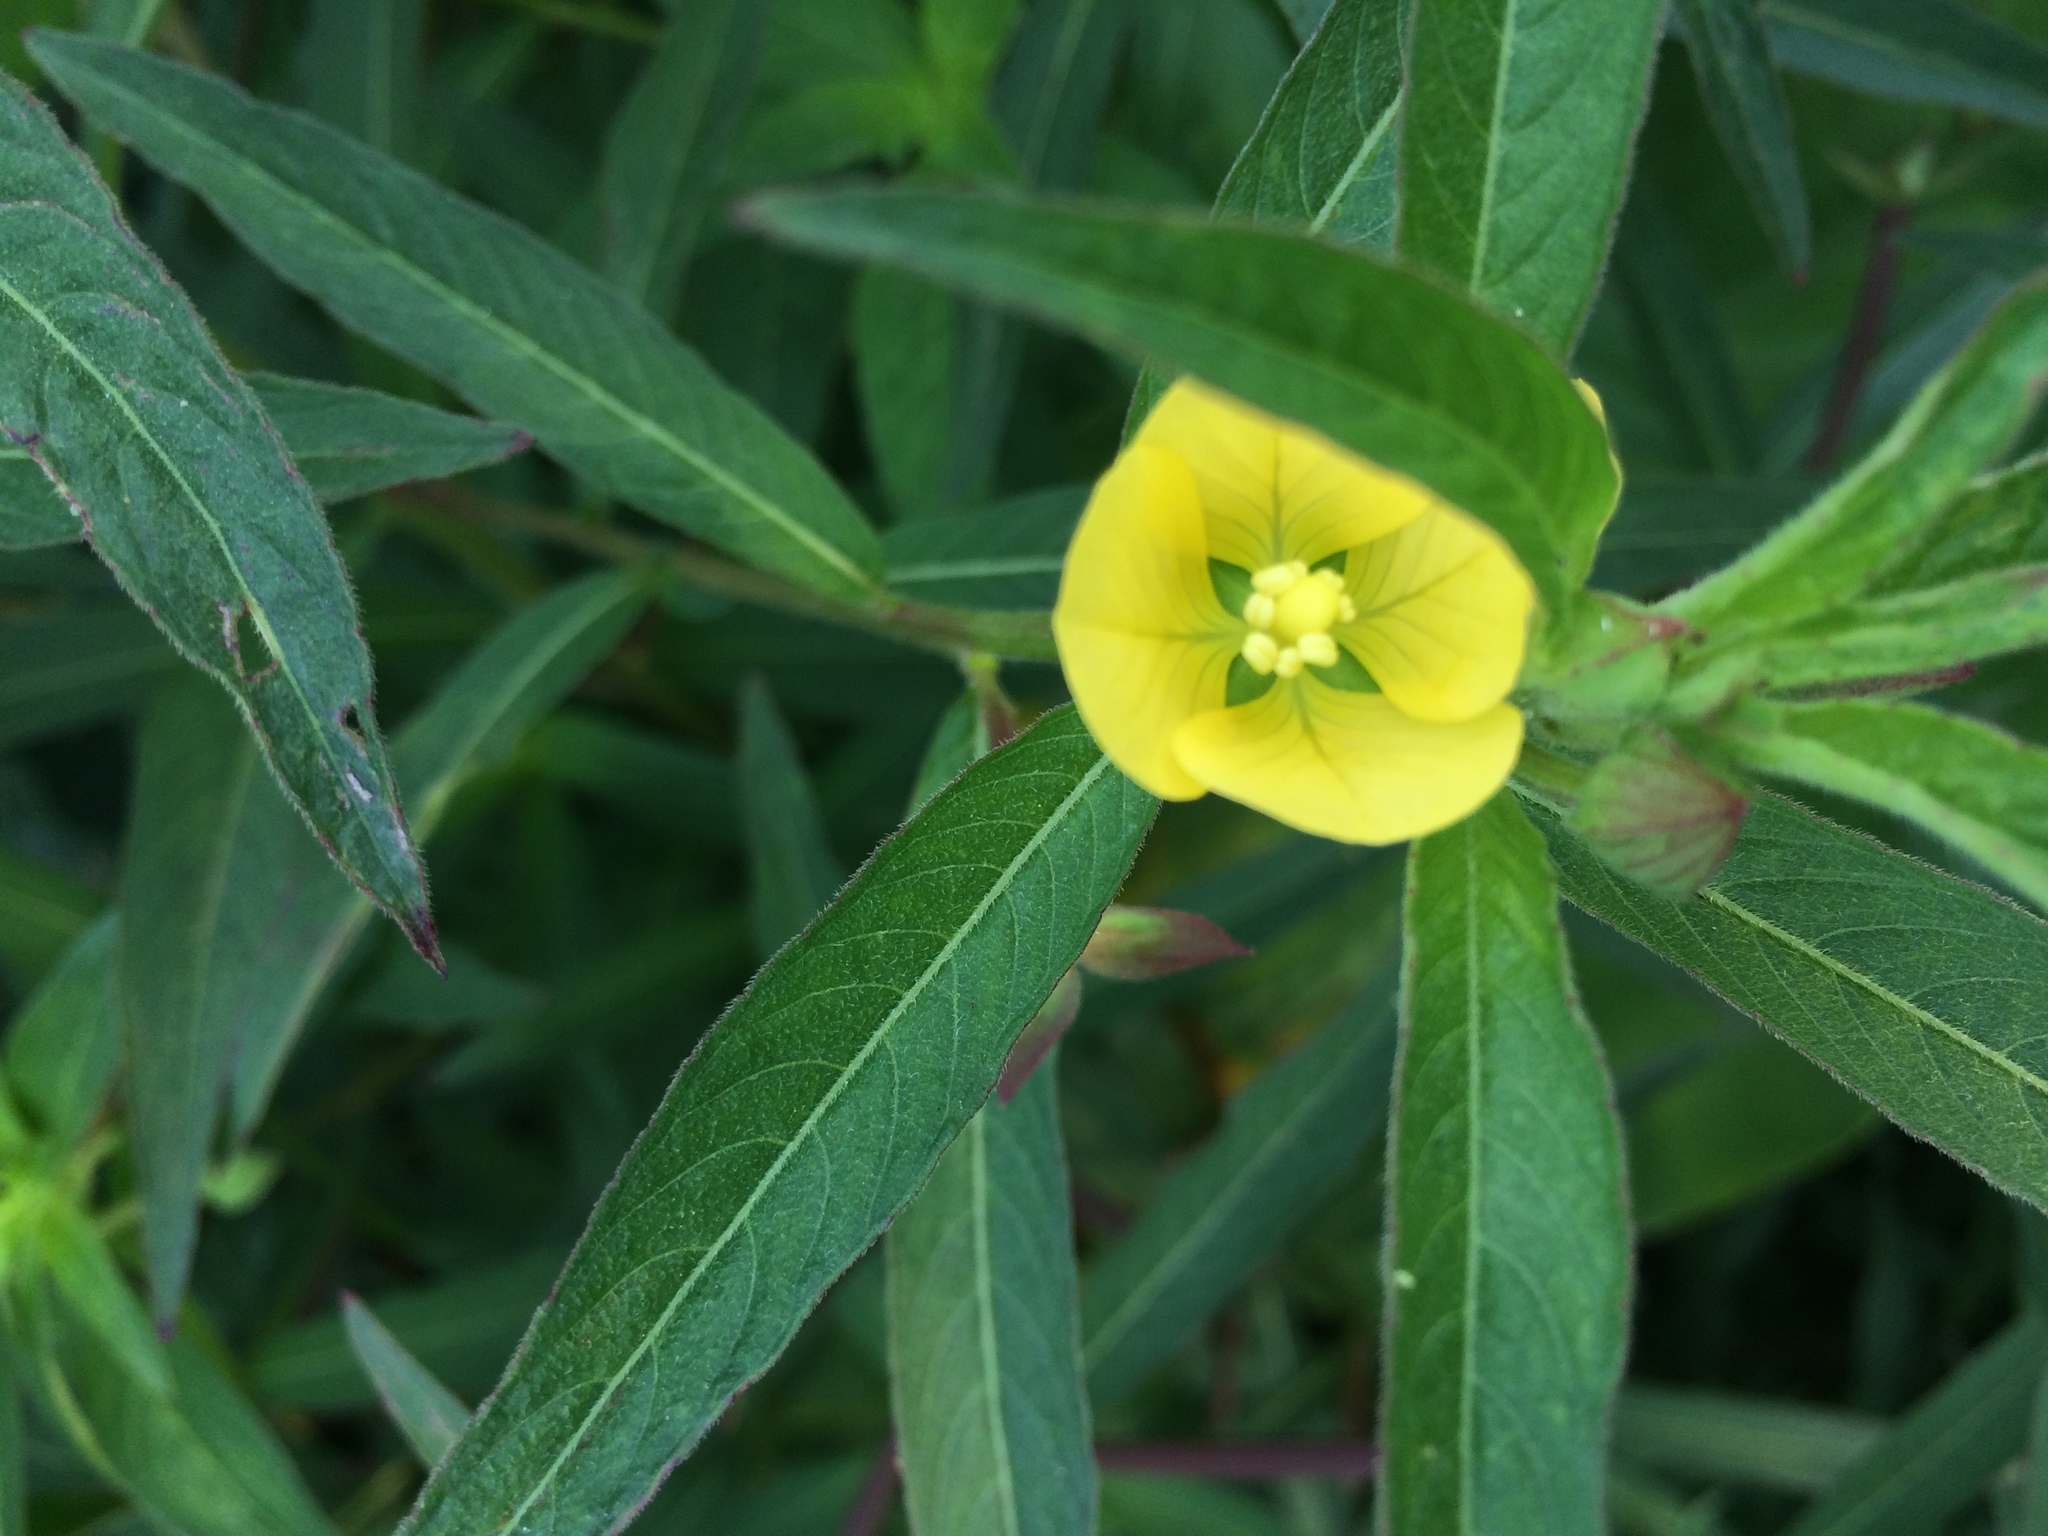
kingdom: Plantae
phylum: Tracheophyta
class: Magnoliopsida
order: Myrtales
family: Onagraceae
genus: Ludwigia
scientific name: Ludwigia octovalvis
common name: Water-primrose
